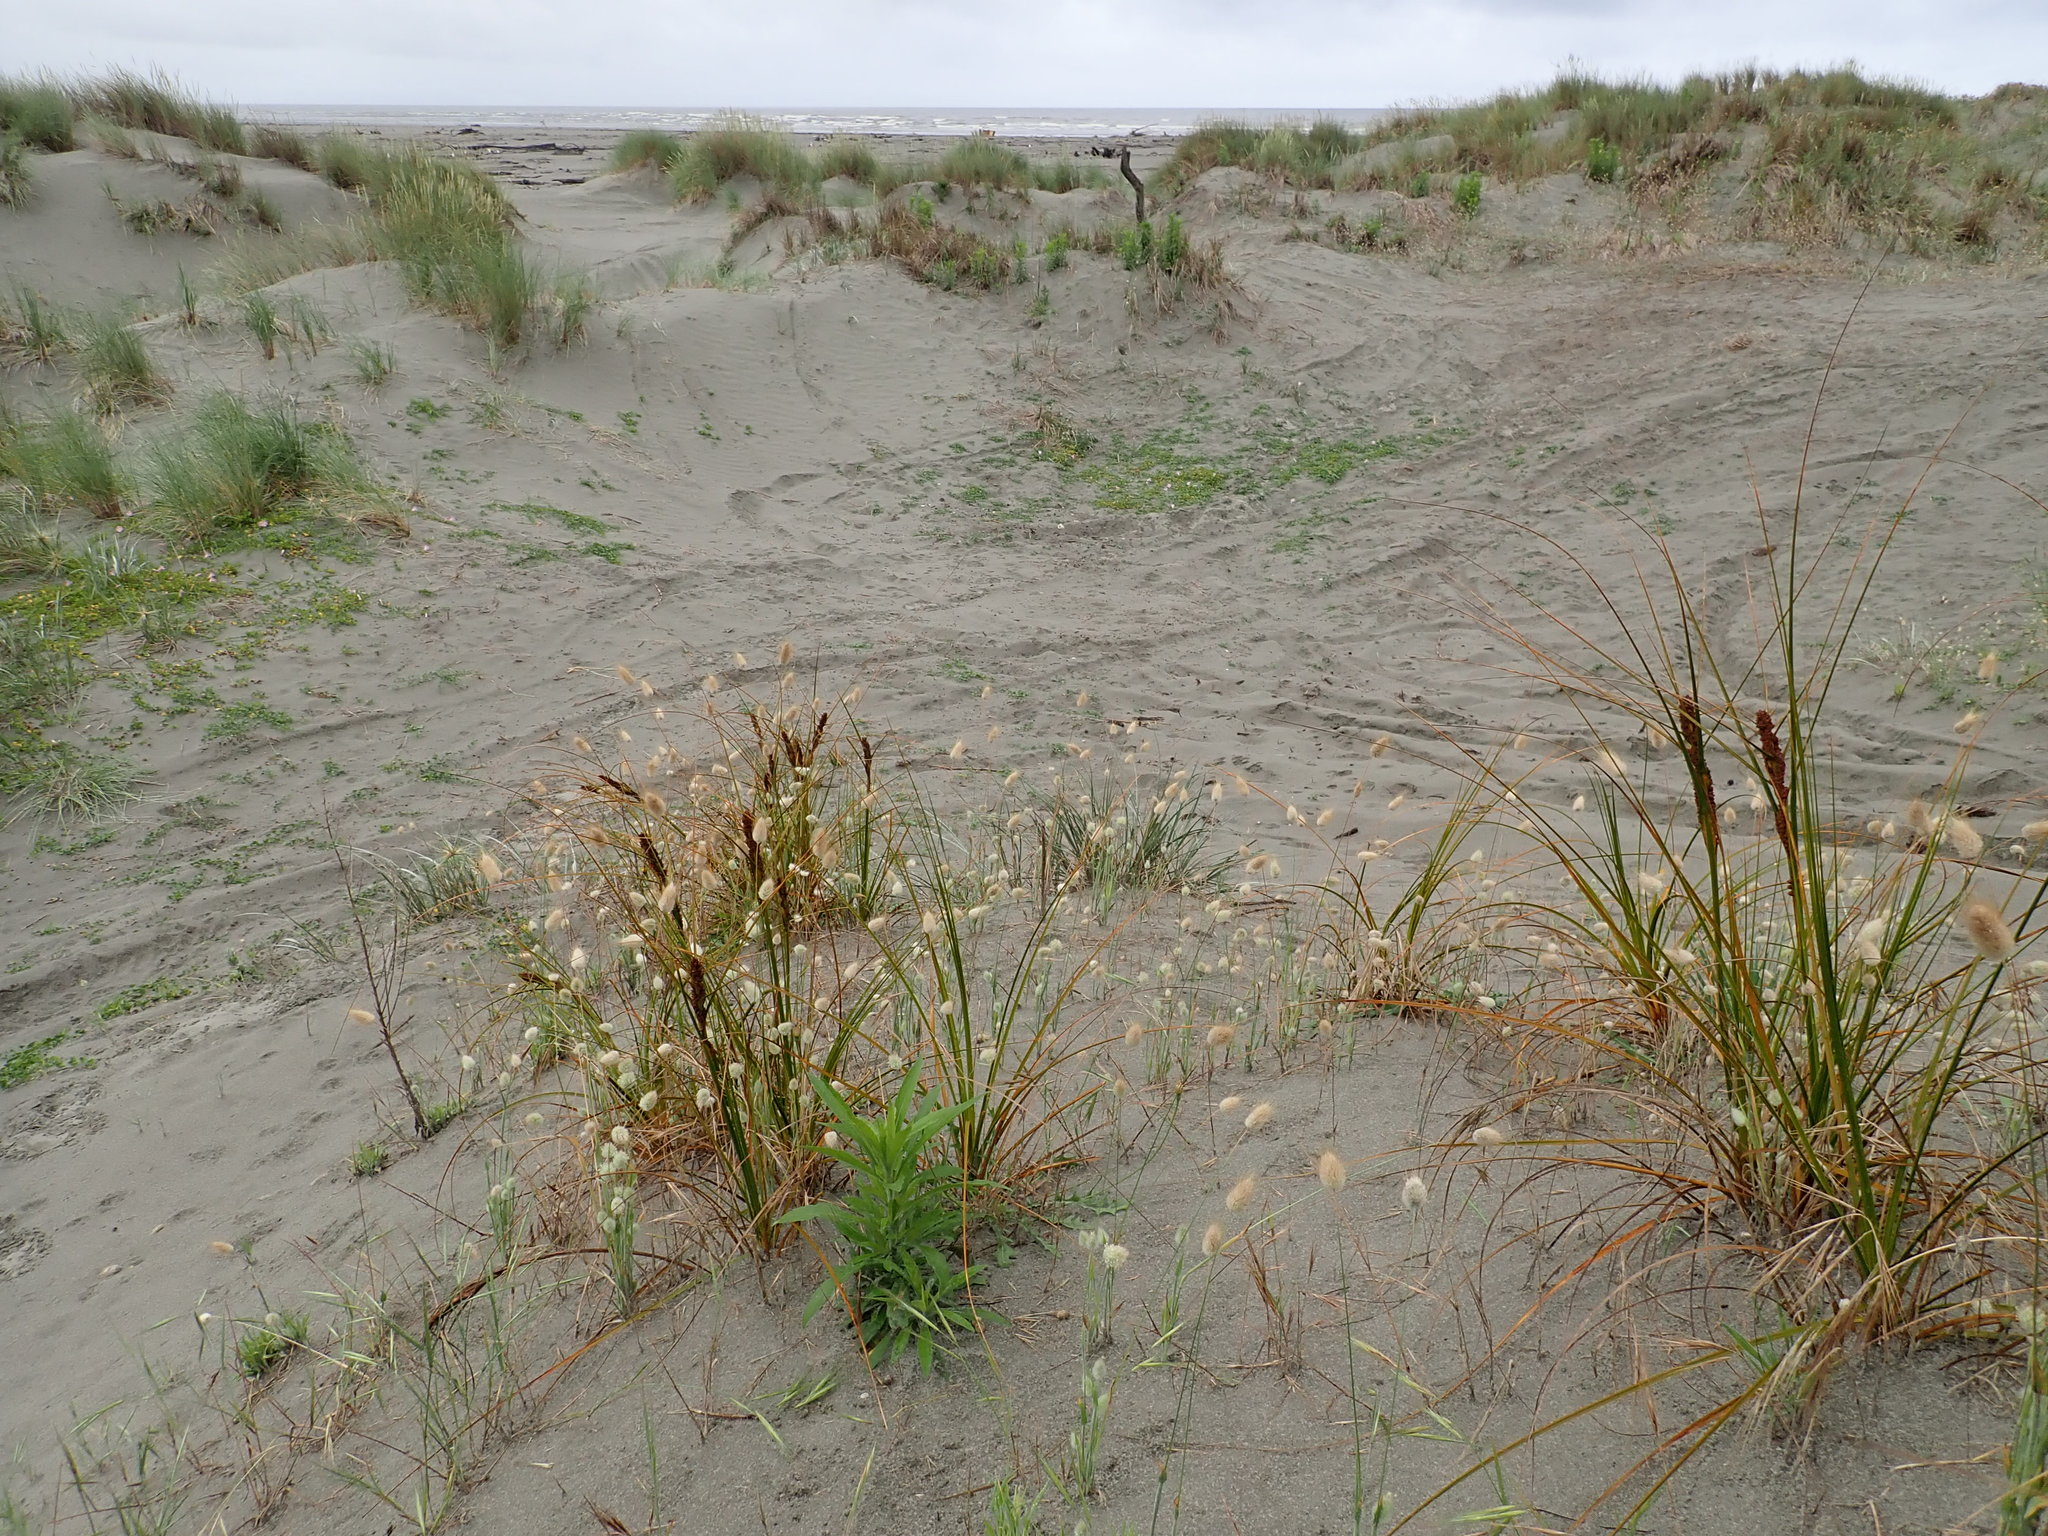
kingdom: Plantae
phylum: Tracheophyta
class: Liliopsida
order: Poales
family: Cyperaceae
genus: Ficinia
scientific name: Ficinia spiralis
